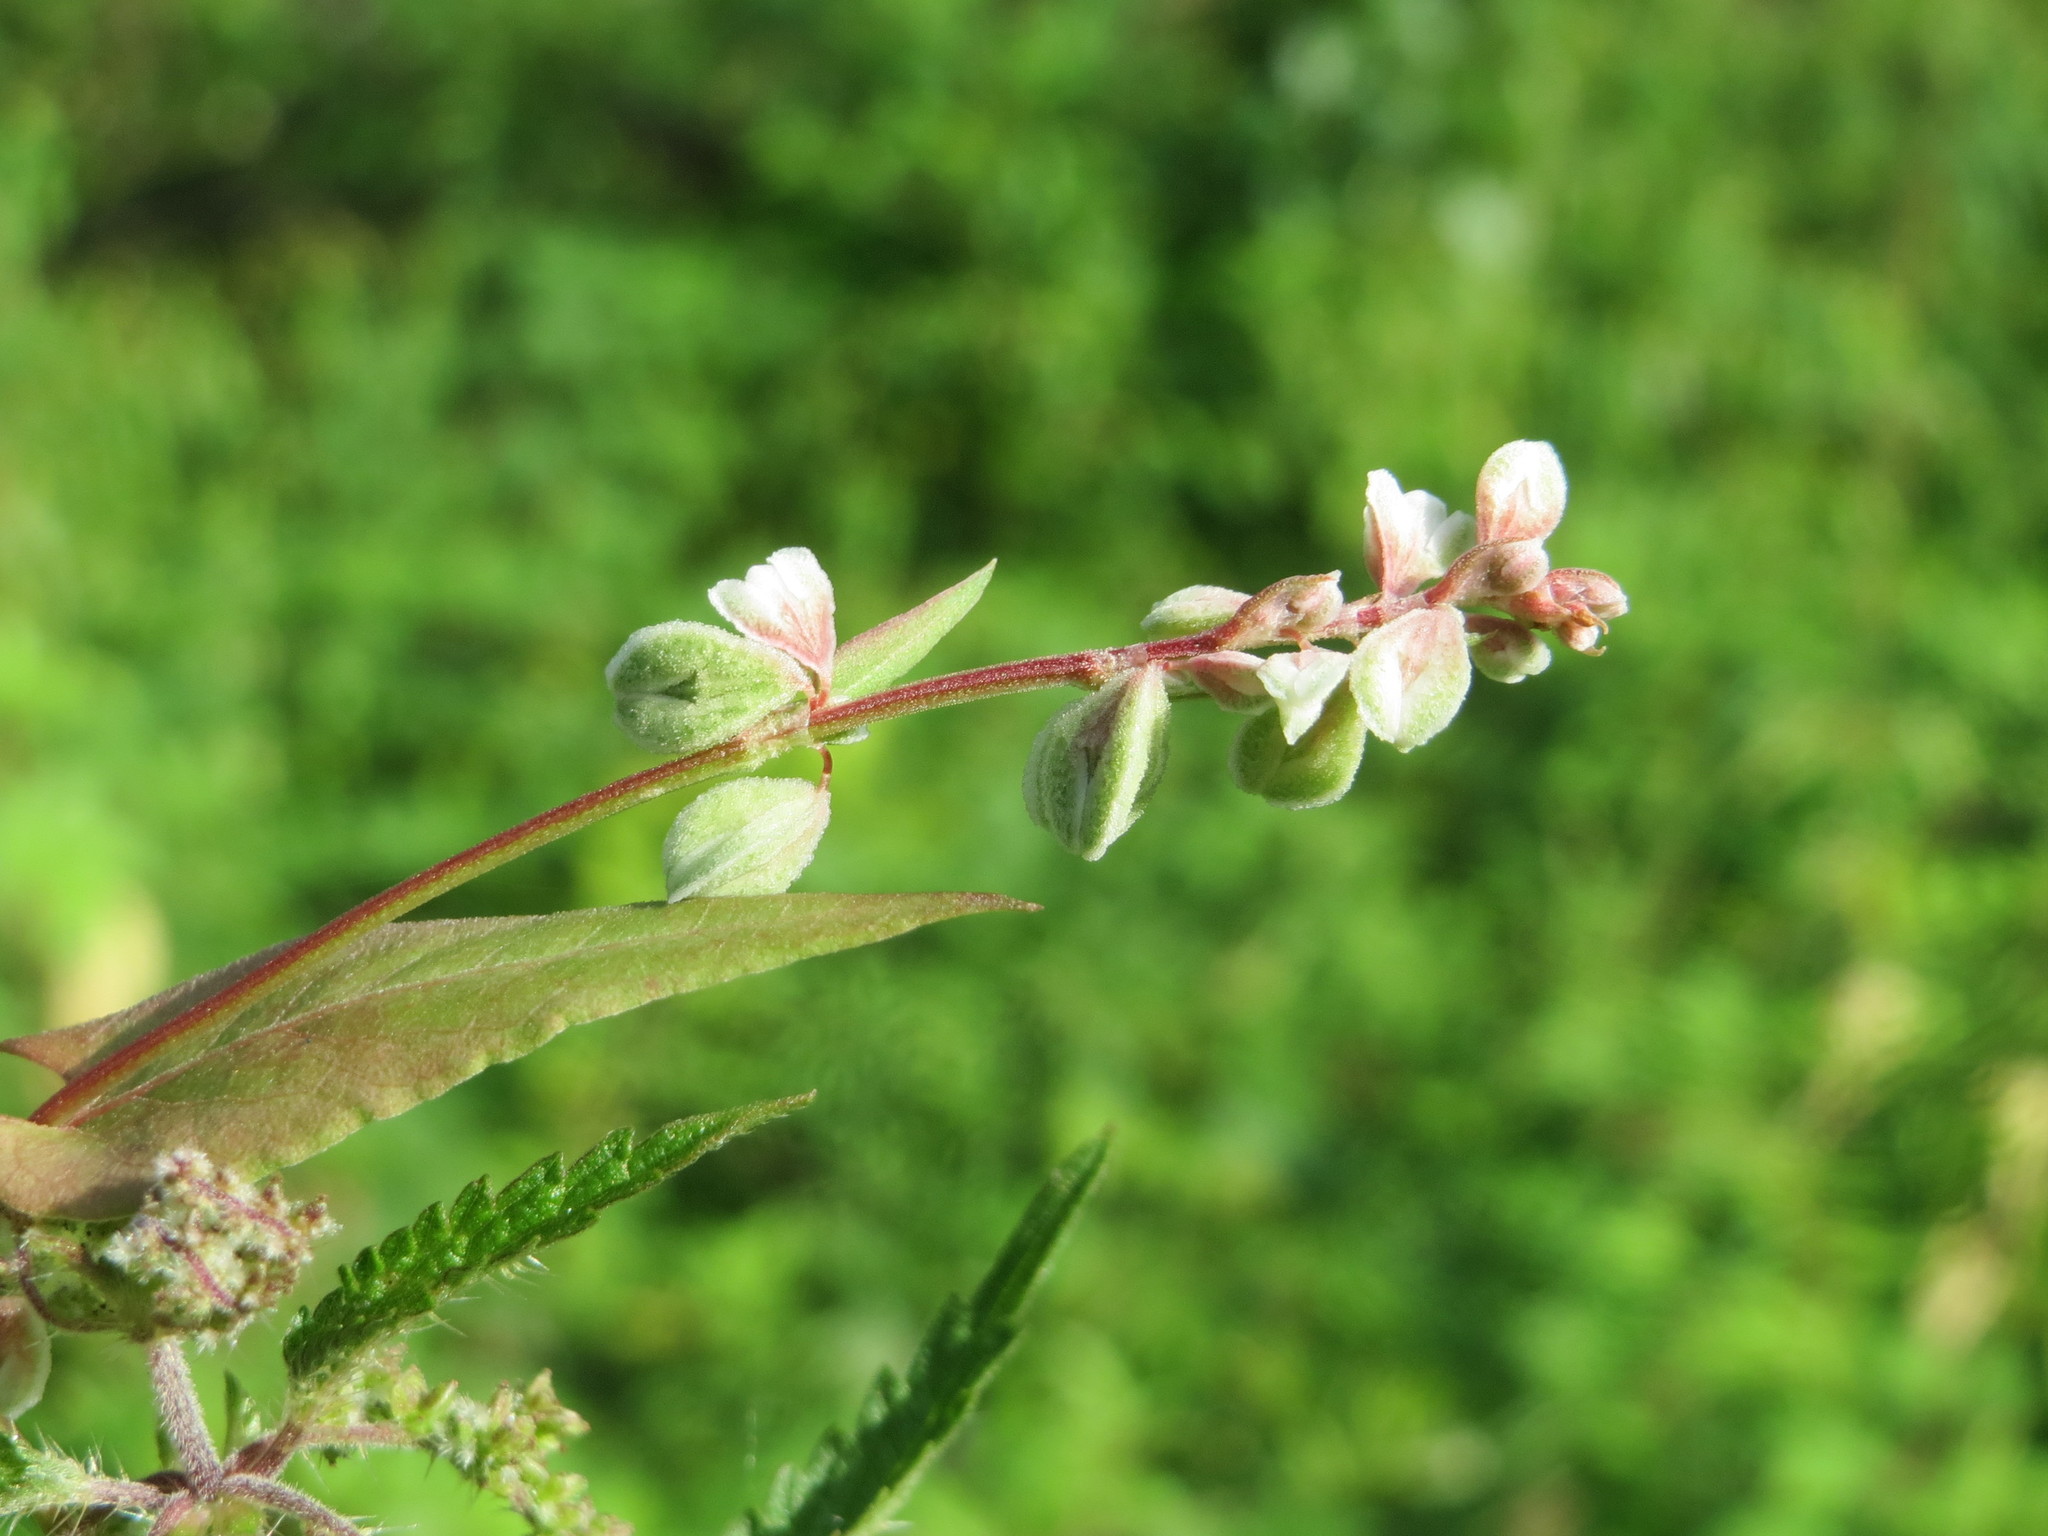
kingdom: Plantae
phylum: Tracheophyta
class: Magnoliopsida
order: Caryophyllales
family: Polygonaceae
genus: Fallopia
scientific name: Fallopia convolvulus
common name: Black bindweed
